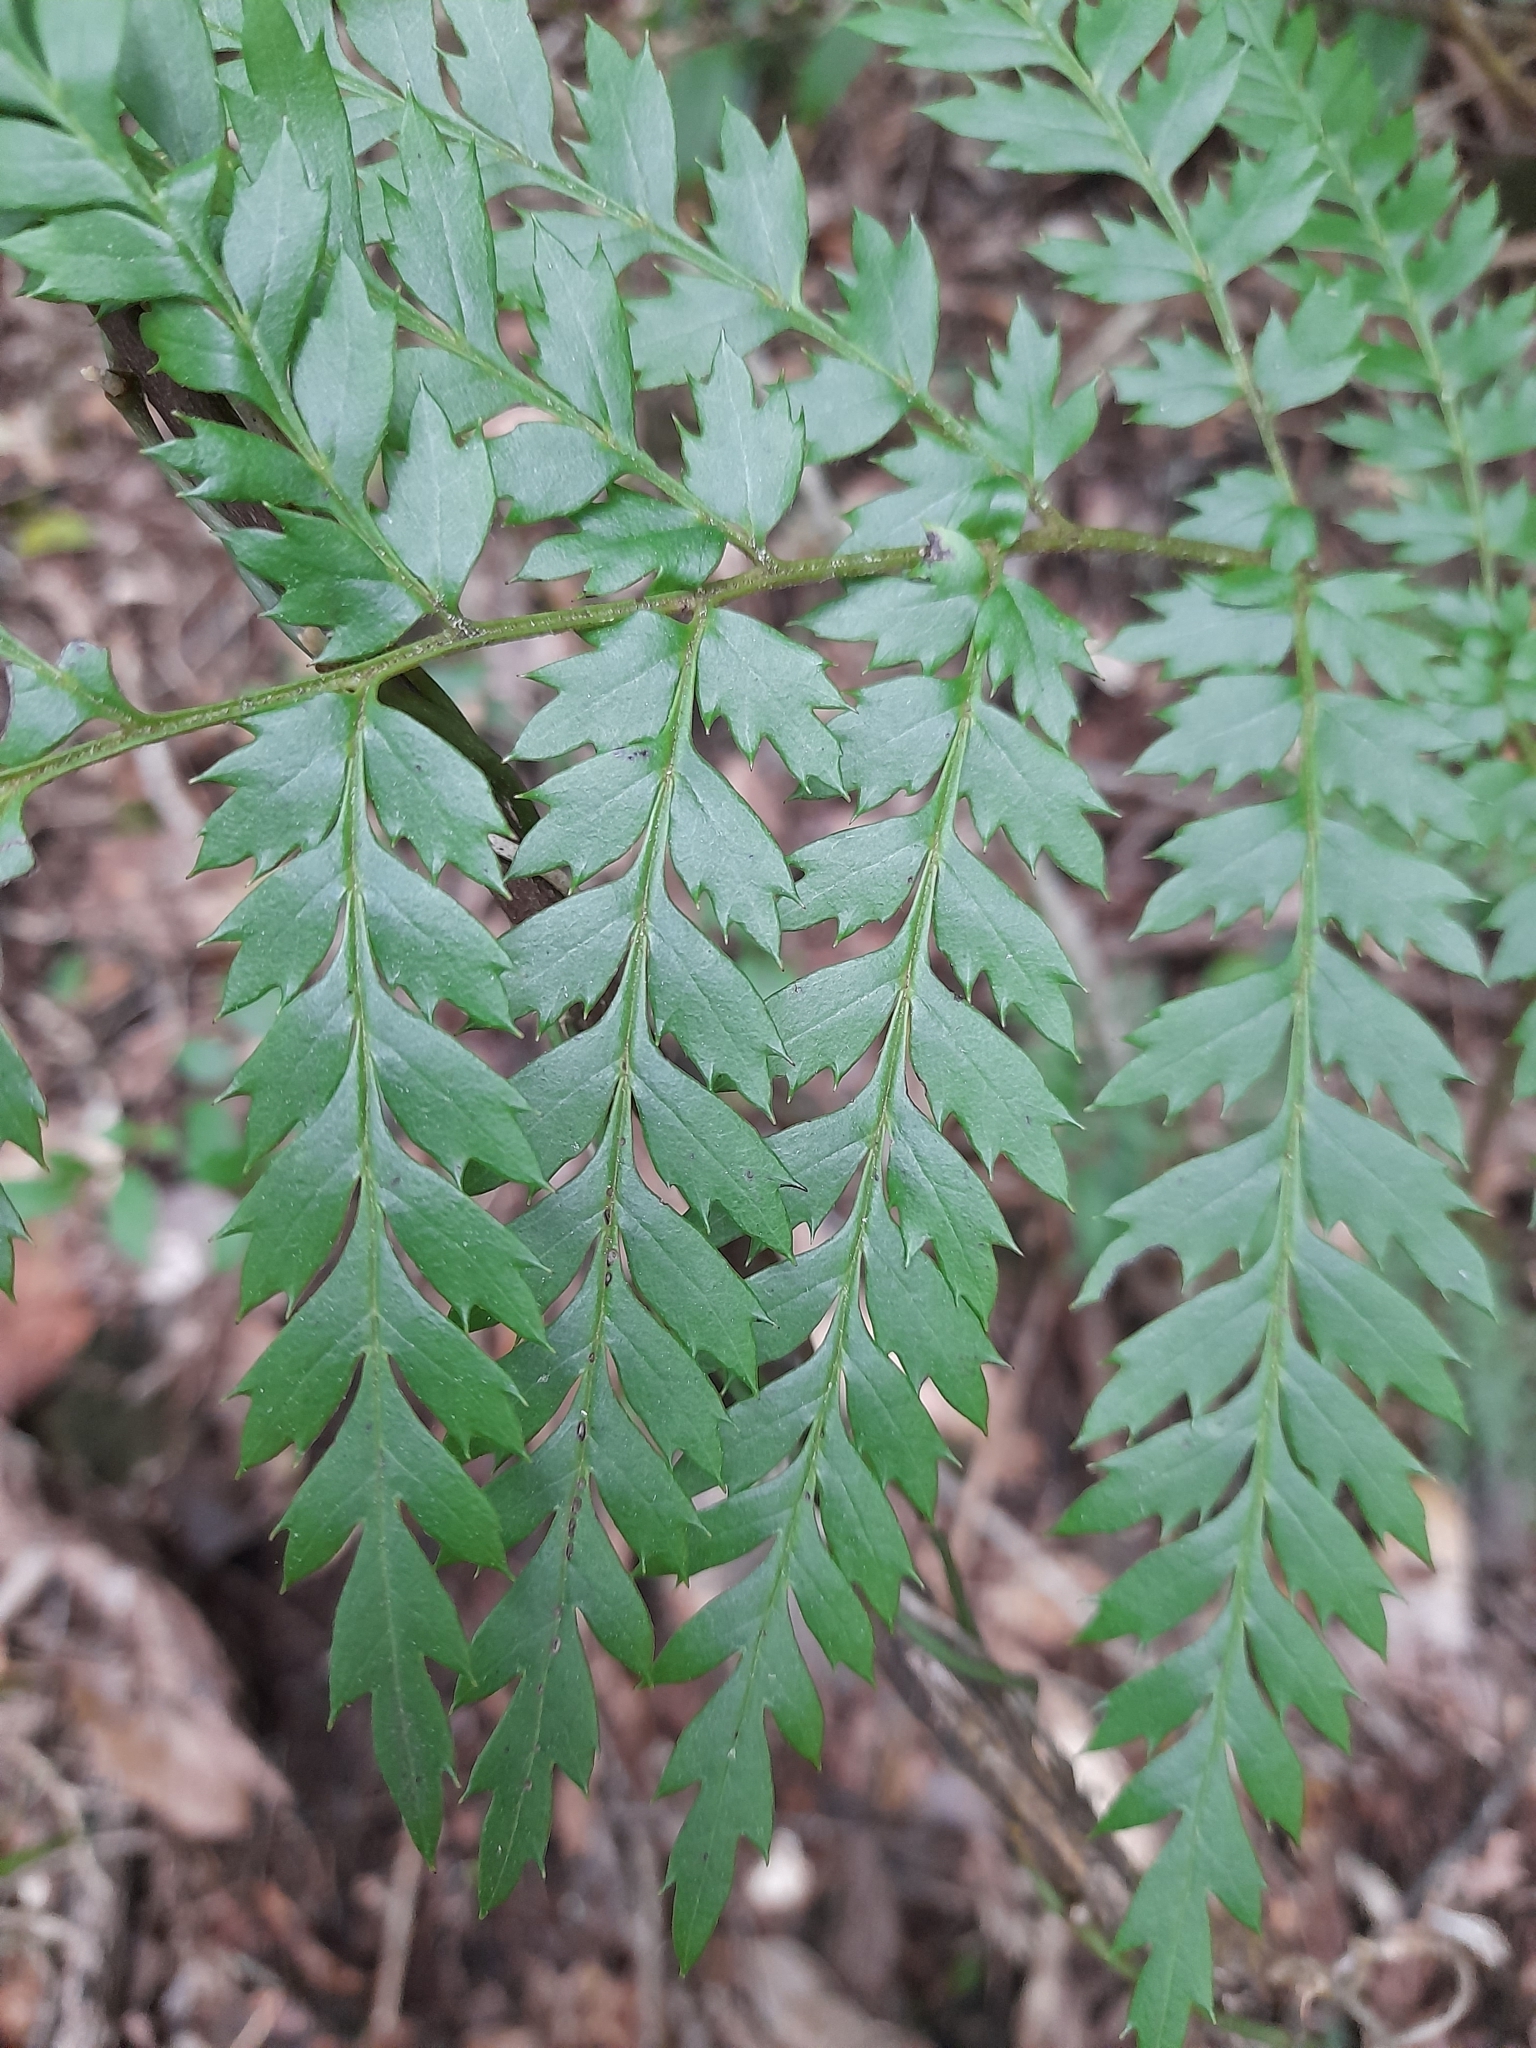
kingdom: Plantae
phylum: Tracheophyta
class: Magnoliopsida
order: Proteales
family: Proteaceae
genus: Lomatia
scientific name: Lomatia ferruginea
